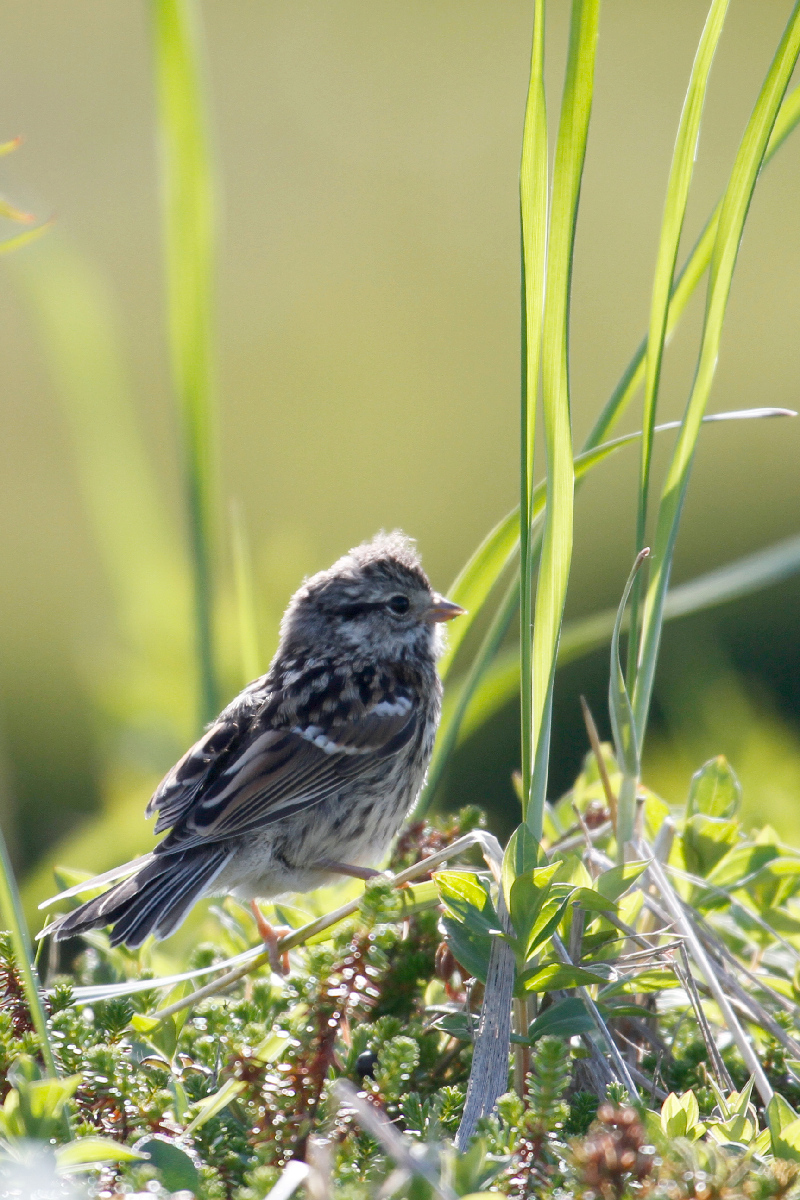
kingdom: Animalia
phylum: Chordata
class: Aves
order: Passeriformes
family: Passerellidae
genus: Spizelloides
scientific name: Spizelloides arborea
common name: American tree sparrow
